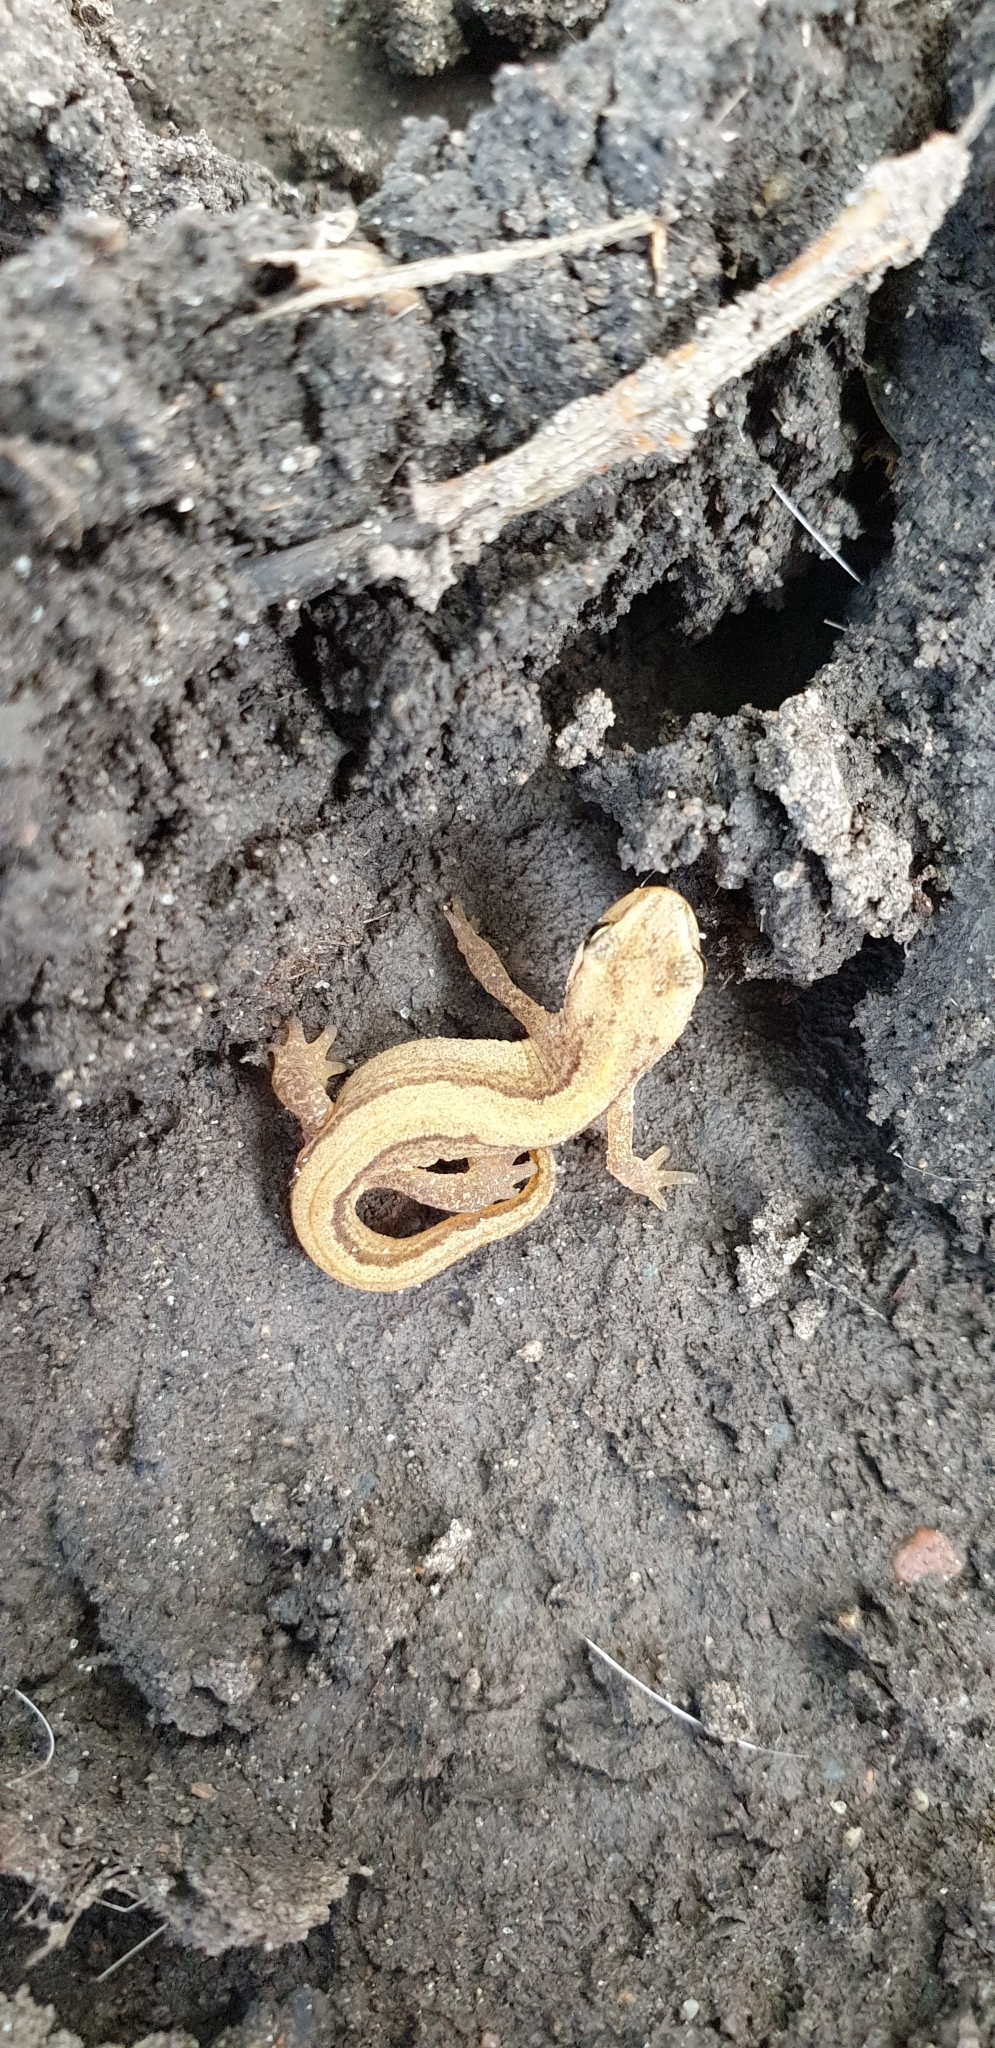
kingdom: Animalia
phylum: Chordata
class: Amphibia
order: Caudata
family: Salamandridae
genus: Lissotriton
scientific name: Lissotriton vulgaris
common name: Smooth newt
